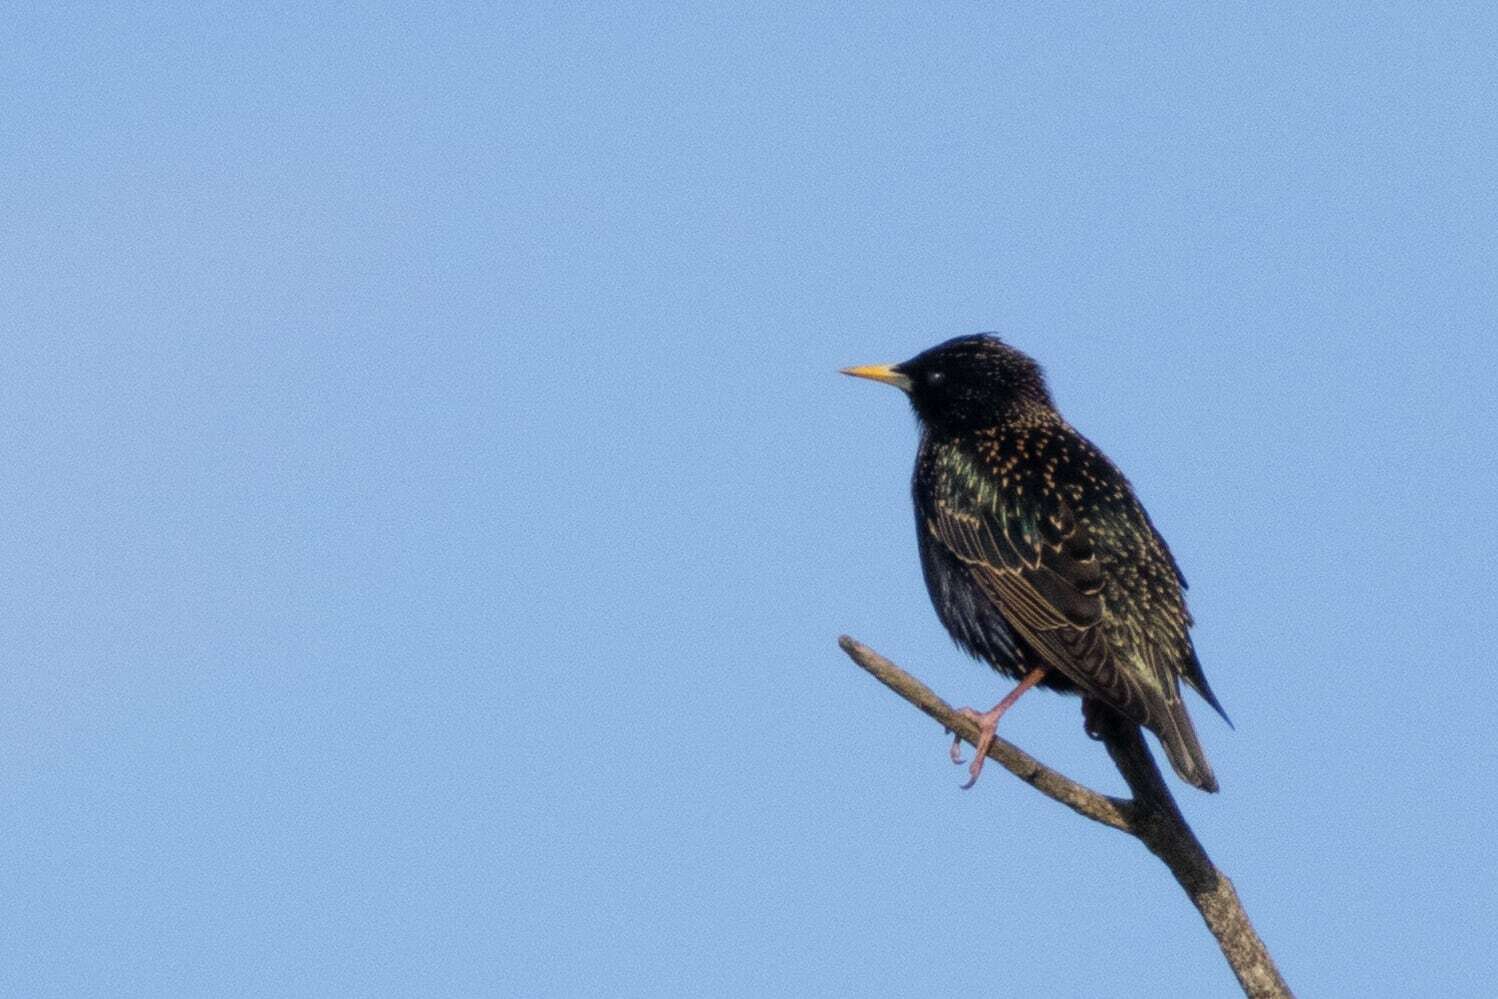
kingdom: Animalia
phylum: Chordata
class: Aves
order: Passeriformes
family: Sturnidae
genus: Sturnus
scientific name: Sturnus vulgaris
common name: Common starling
